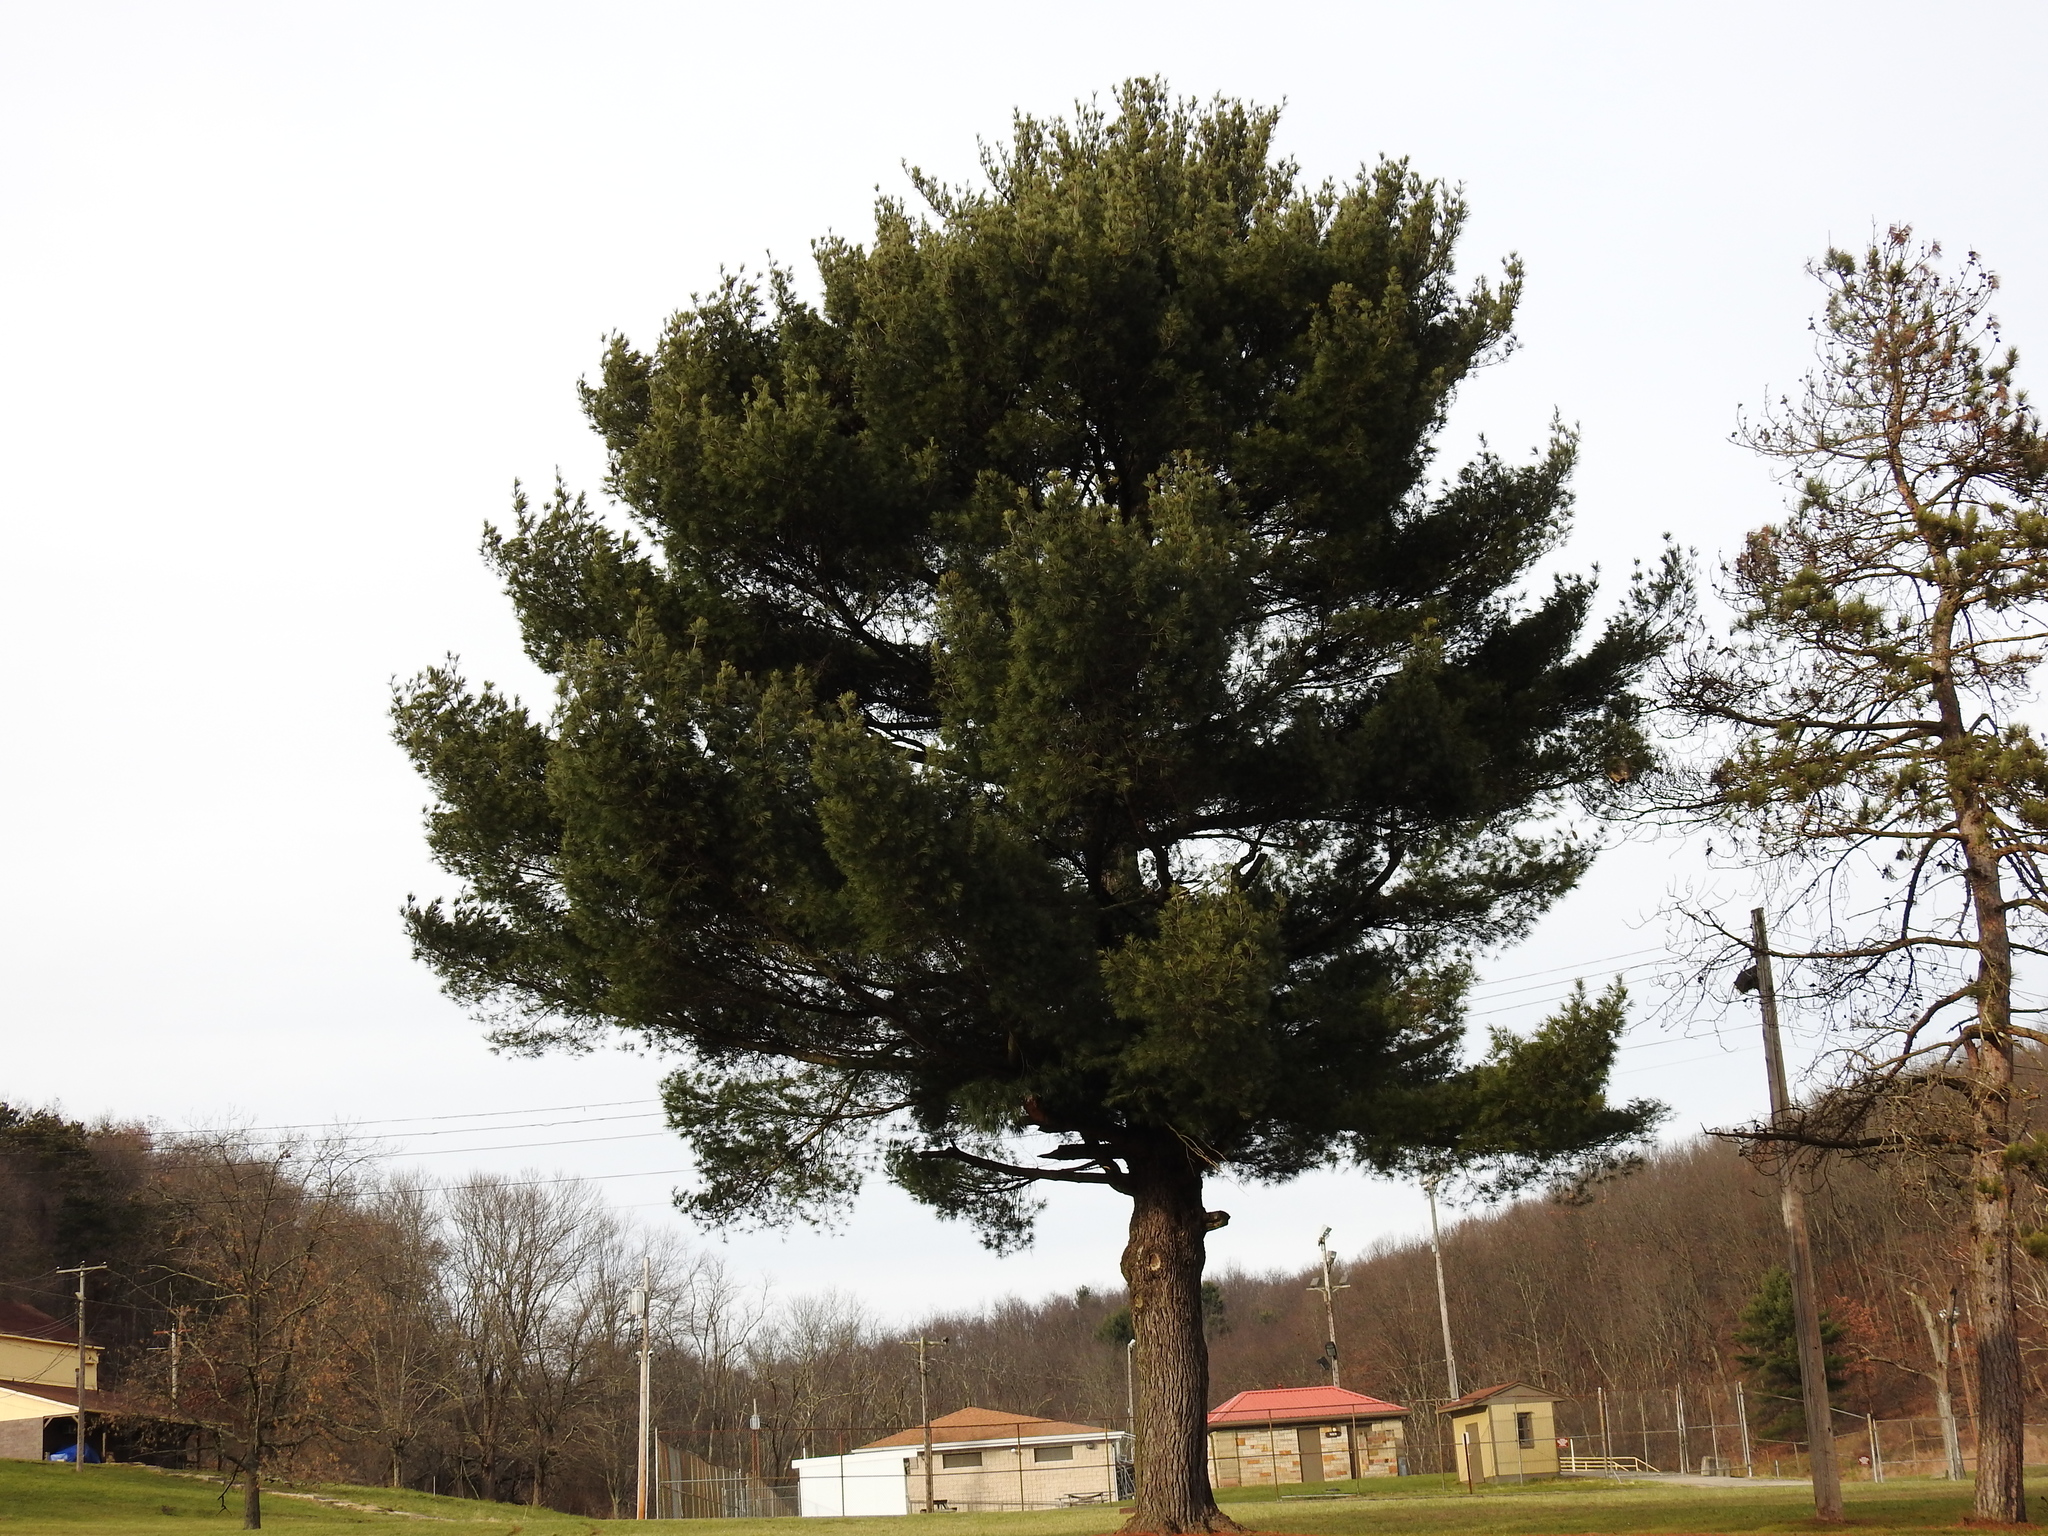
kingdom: Plantae
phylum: Tracheophyta
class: Pinopsida
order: Pinales
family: Pinaceae
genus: Pinus
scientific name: Pinus strobus
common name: Weymouth pine
